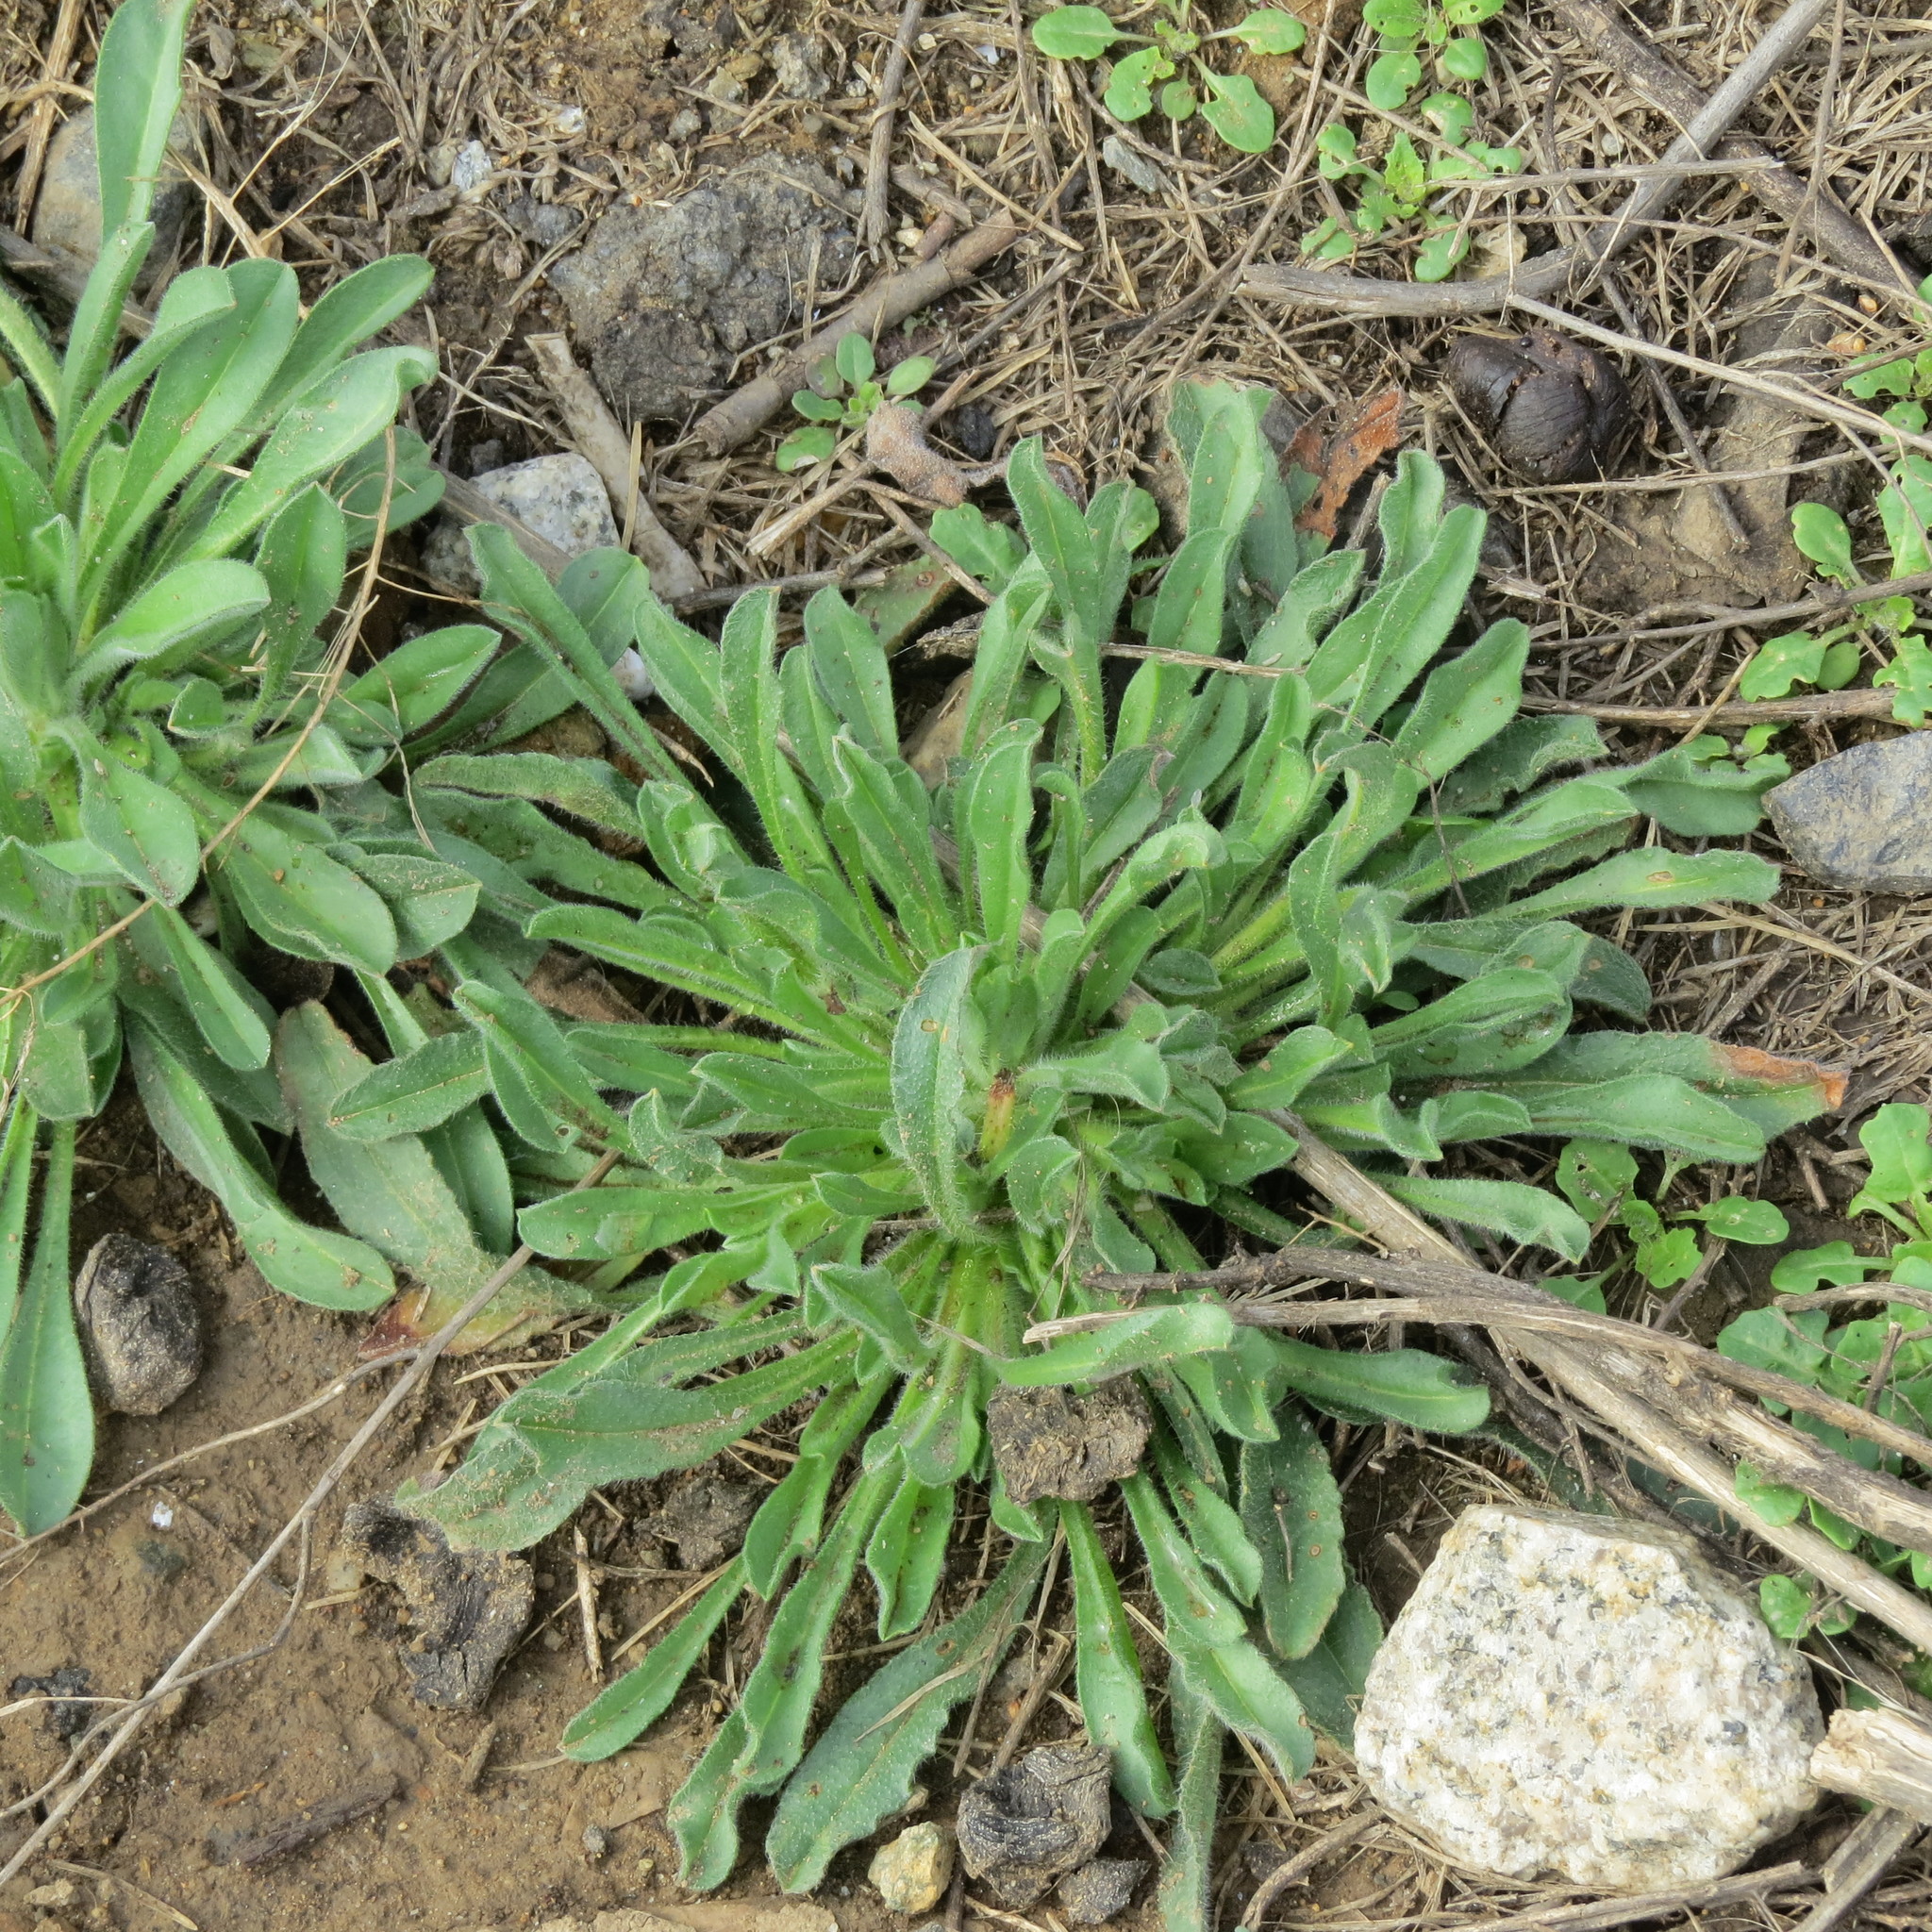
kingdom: Plantae
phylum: Tracheophyta
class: Magnoliopsida
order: Asterales
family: Asteraceae
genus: Erigeron
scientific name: Erigeron canadensis
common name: Canadian fleabane
